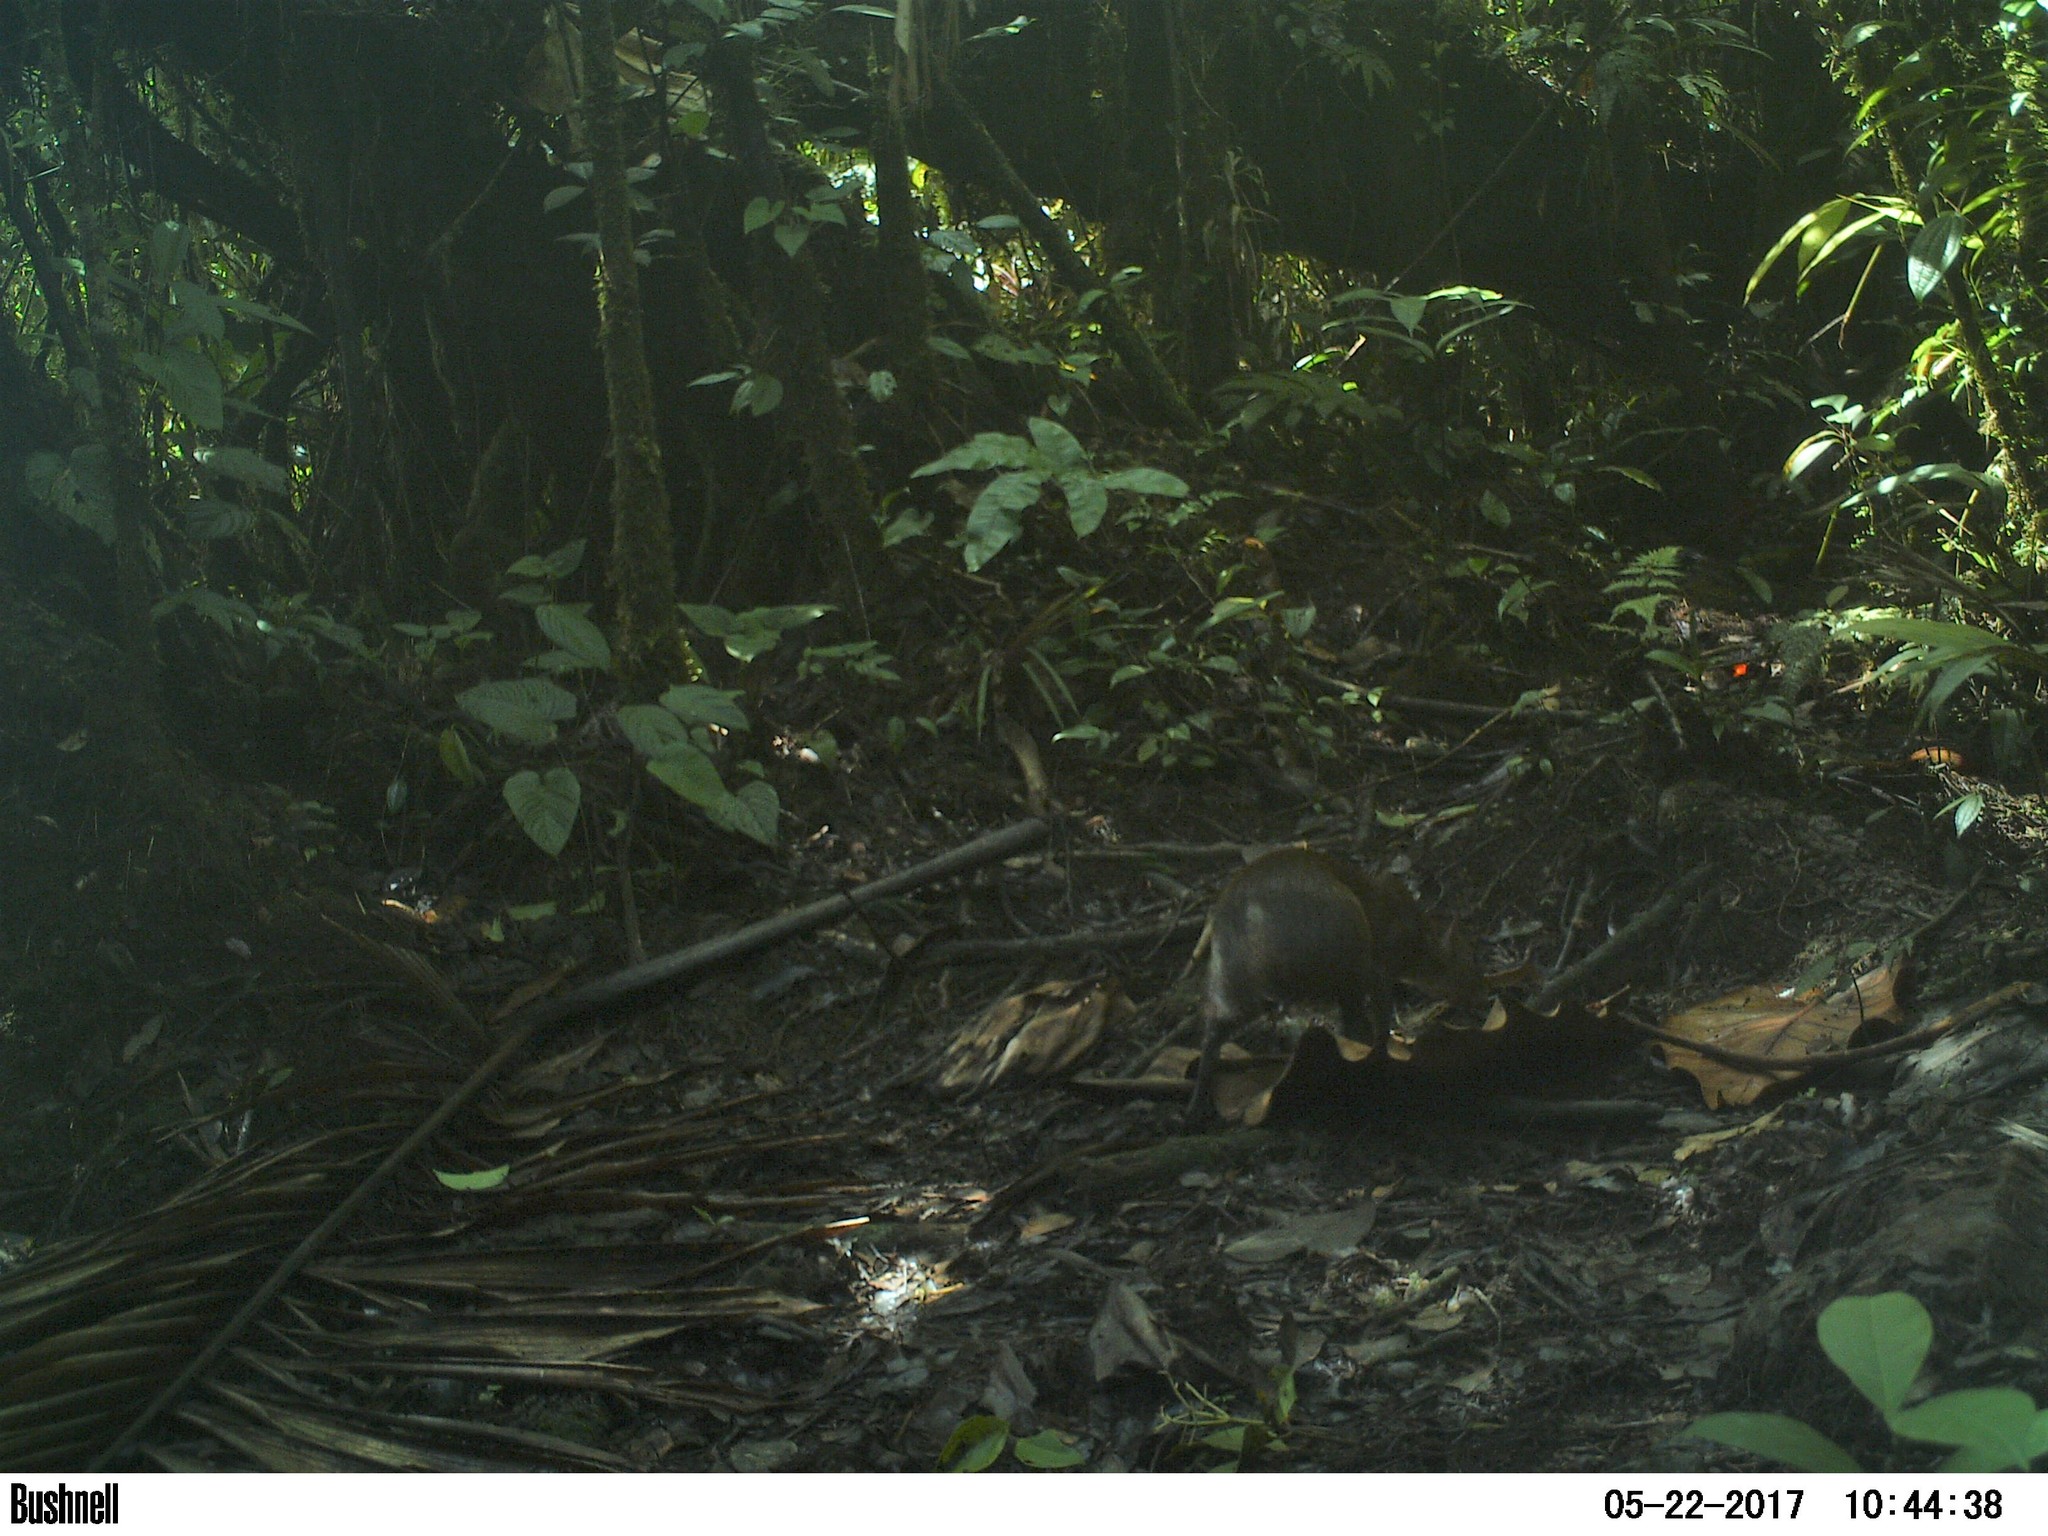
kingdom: Animalia
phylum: Chordata
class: Mammalia
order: Rodentia
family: Dasyproctidae
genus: Dasyprocta
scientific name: Dasyprocta punctata
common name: Central american agouti
